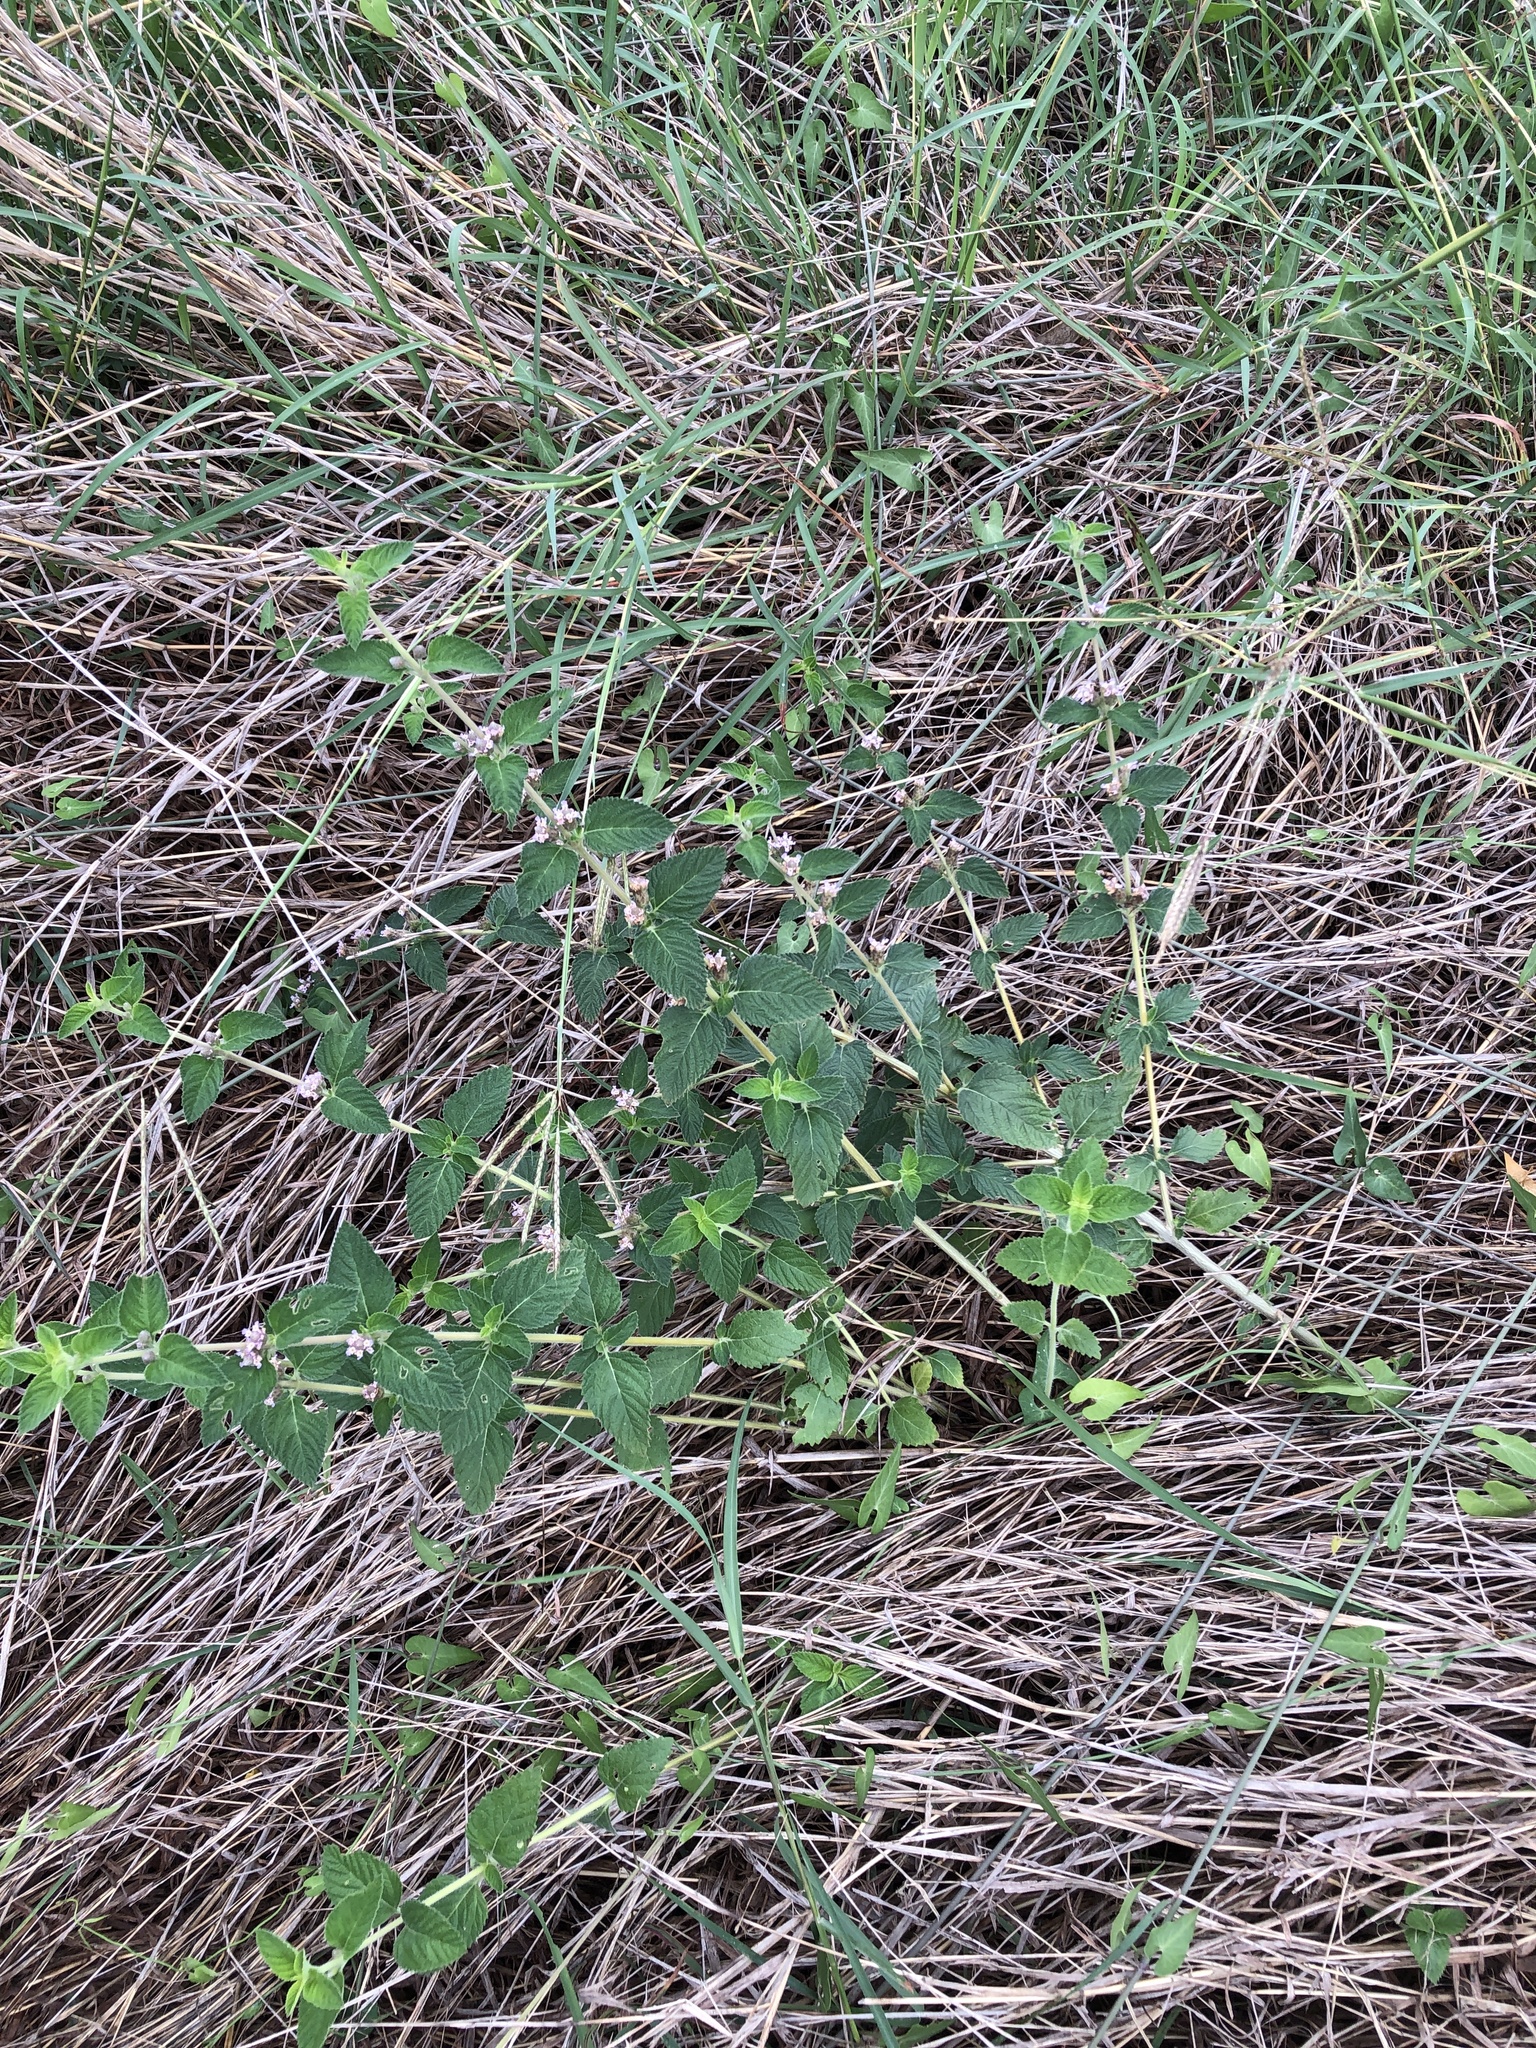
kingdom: Plantae
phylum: Tracheophyta
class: Magnoliopsida
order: Lamiales
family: Verbenaceae
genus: Lippia
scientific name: Lippia alba
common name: Bushy matgrass
